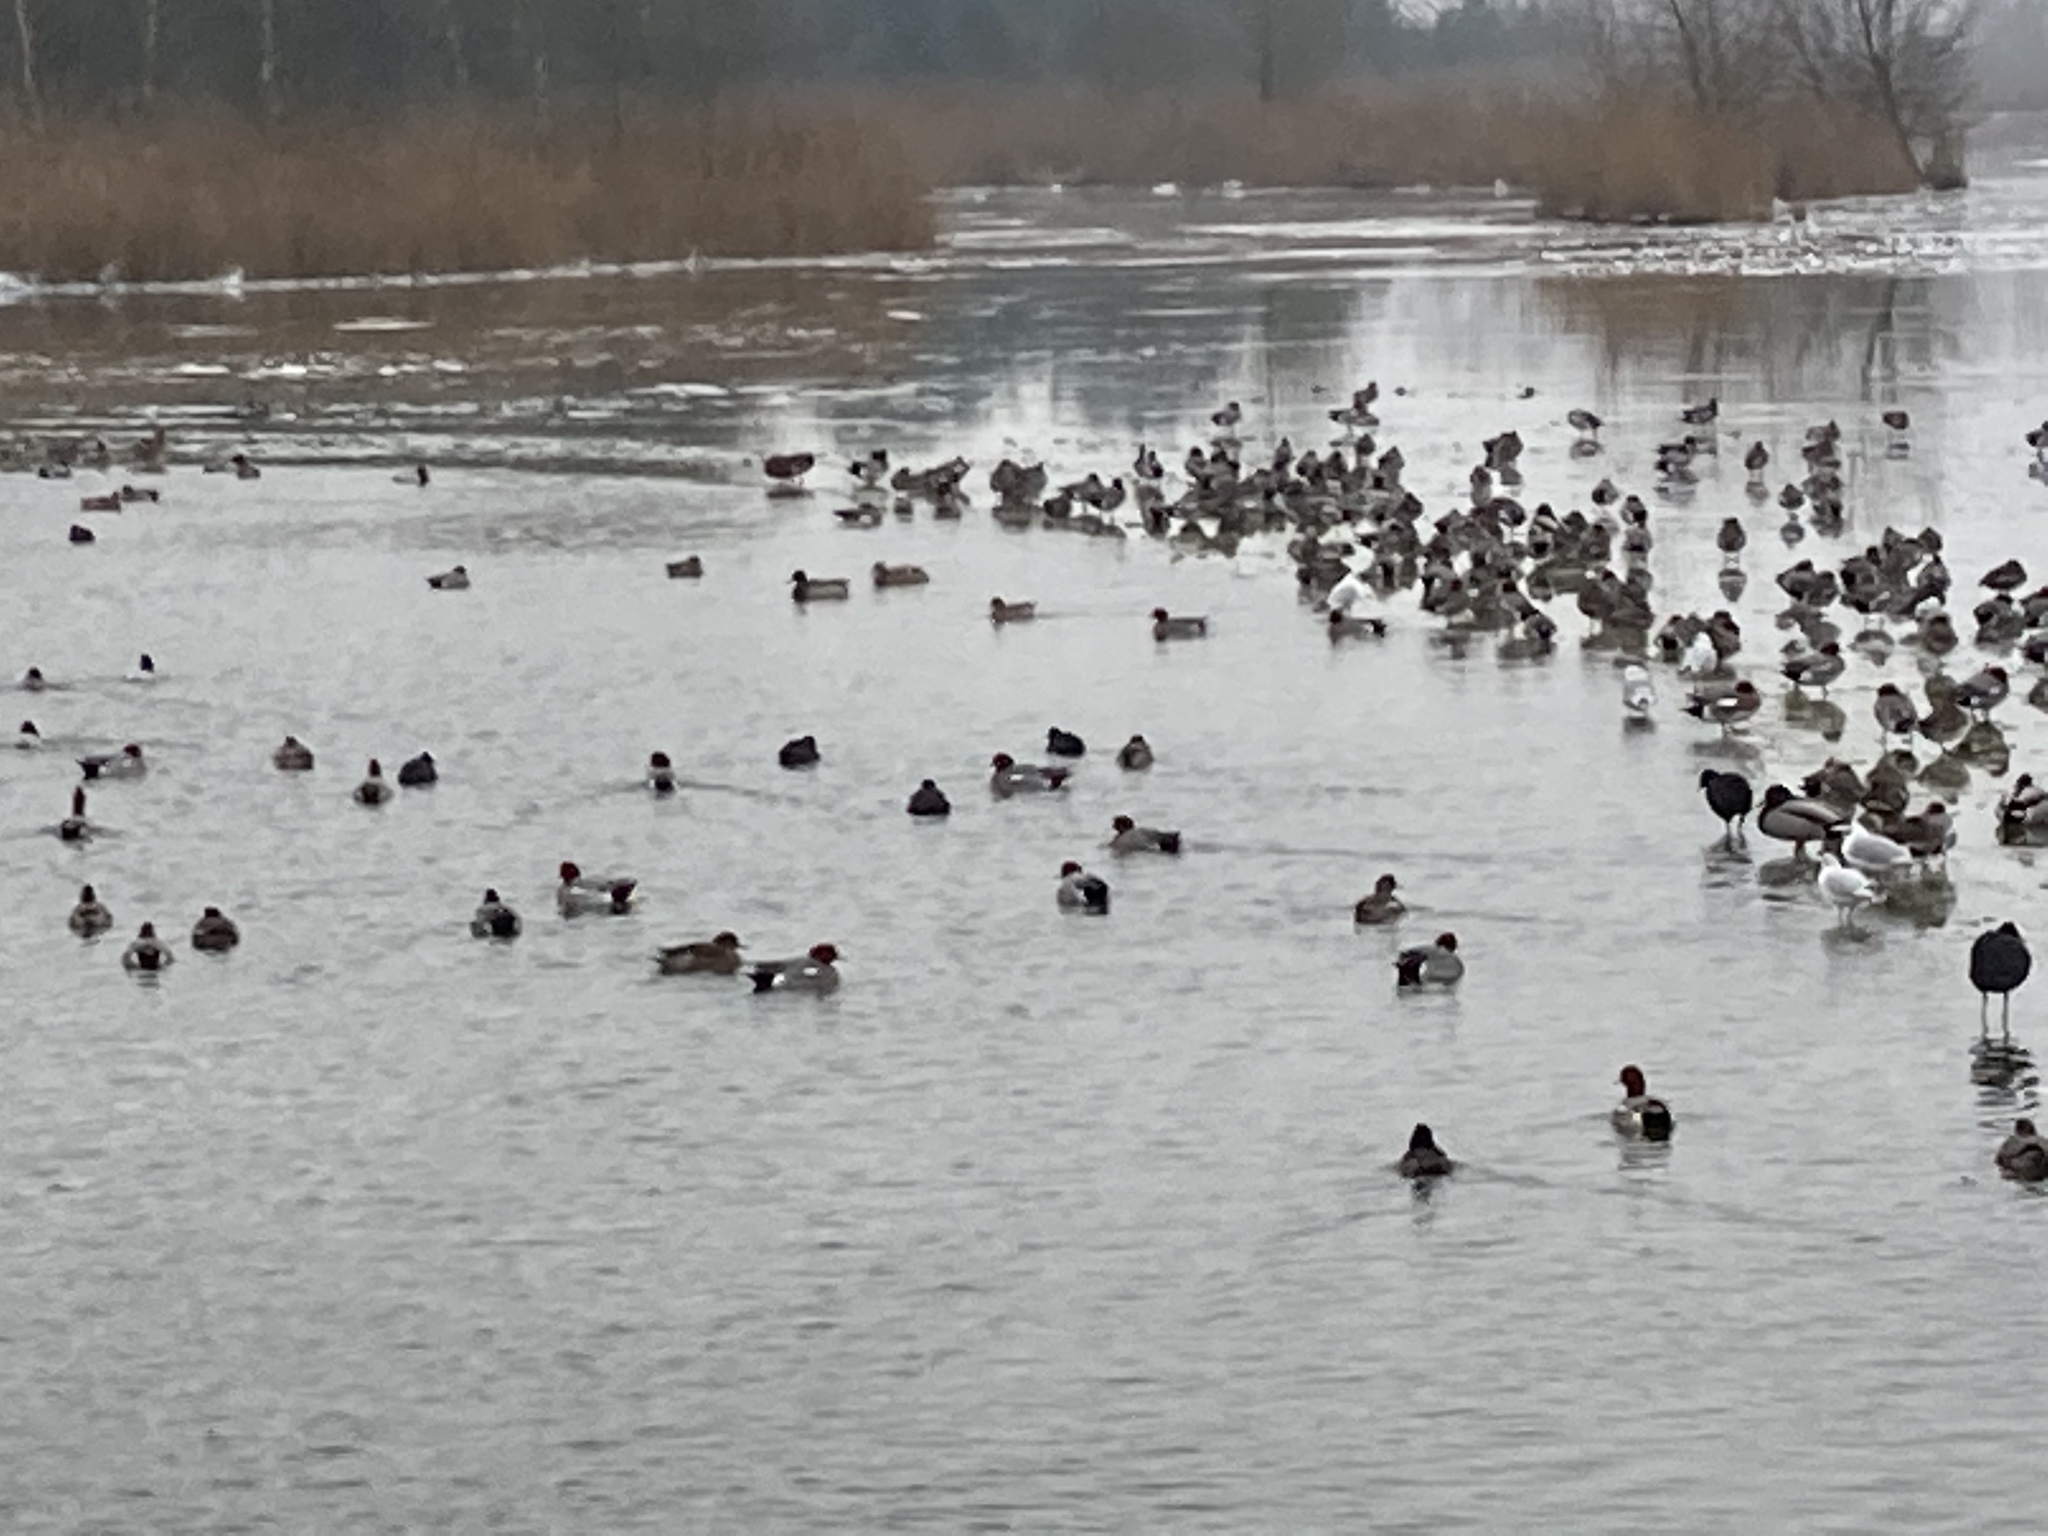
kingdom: Animalia
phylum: Chordata
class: Aves
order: Anseriformes
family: Anatidae
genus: Mareca
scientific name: Mareca penelope
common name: Eurasian wigeon
